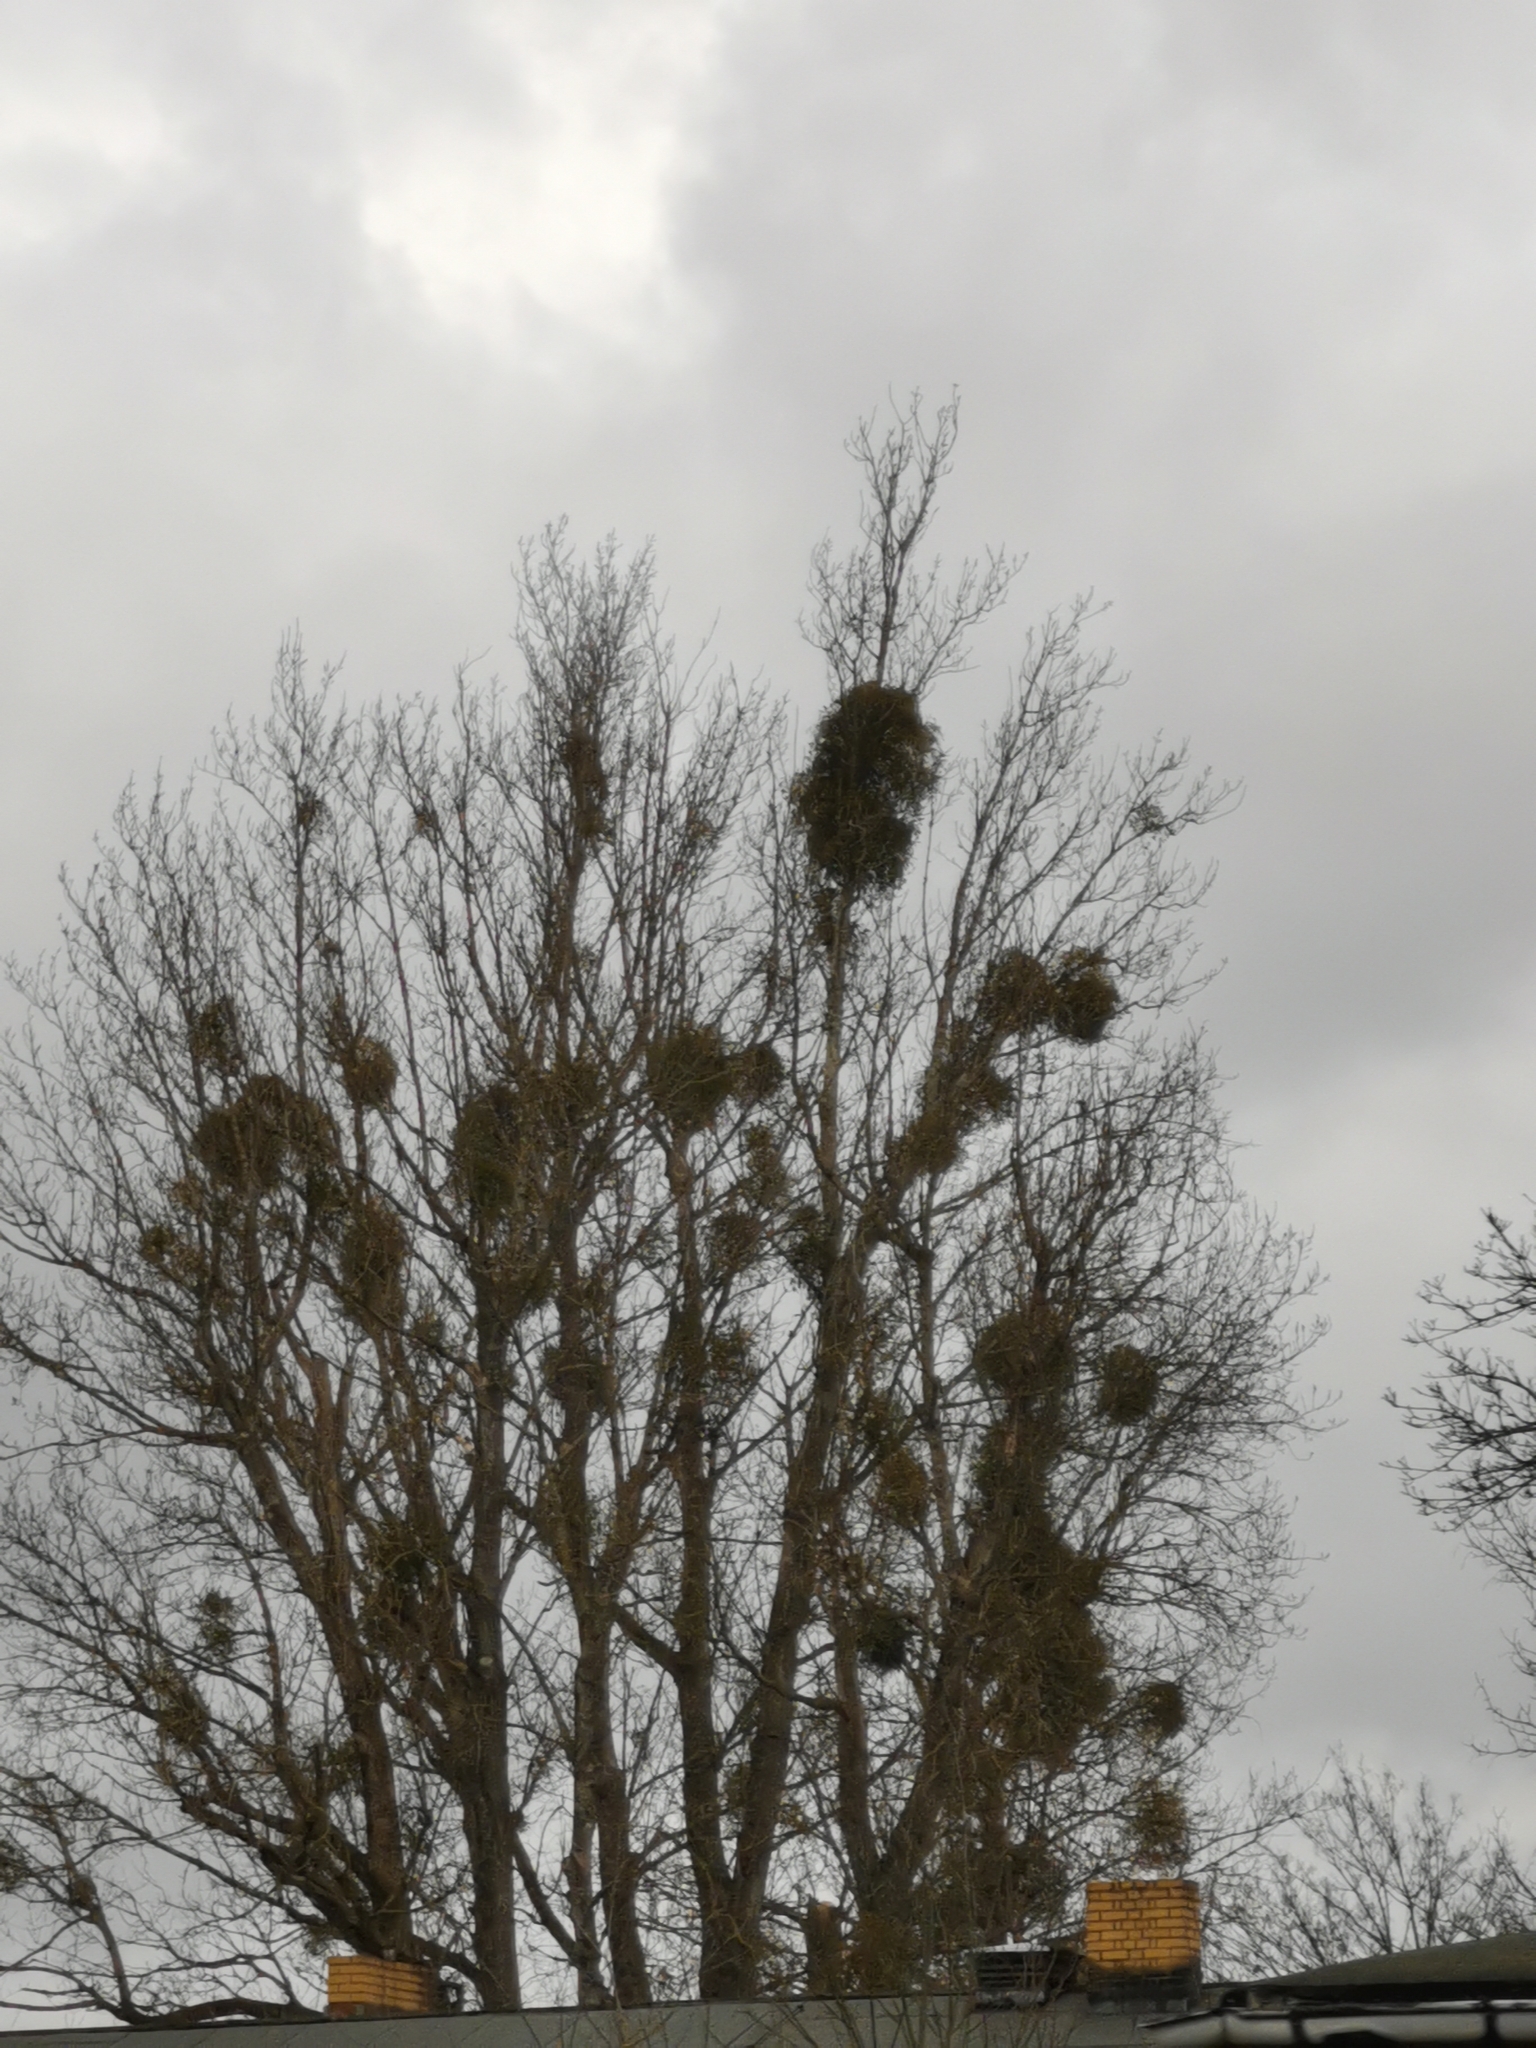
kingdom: Plantae
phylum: Tracheophyta
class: Magnoliopsida
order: Santalales
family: Viscaceae
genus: Viscum
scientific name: Viscum album
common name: Mistletoe
